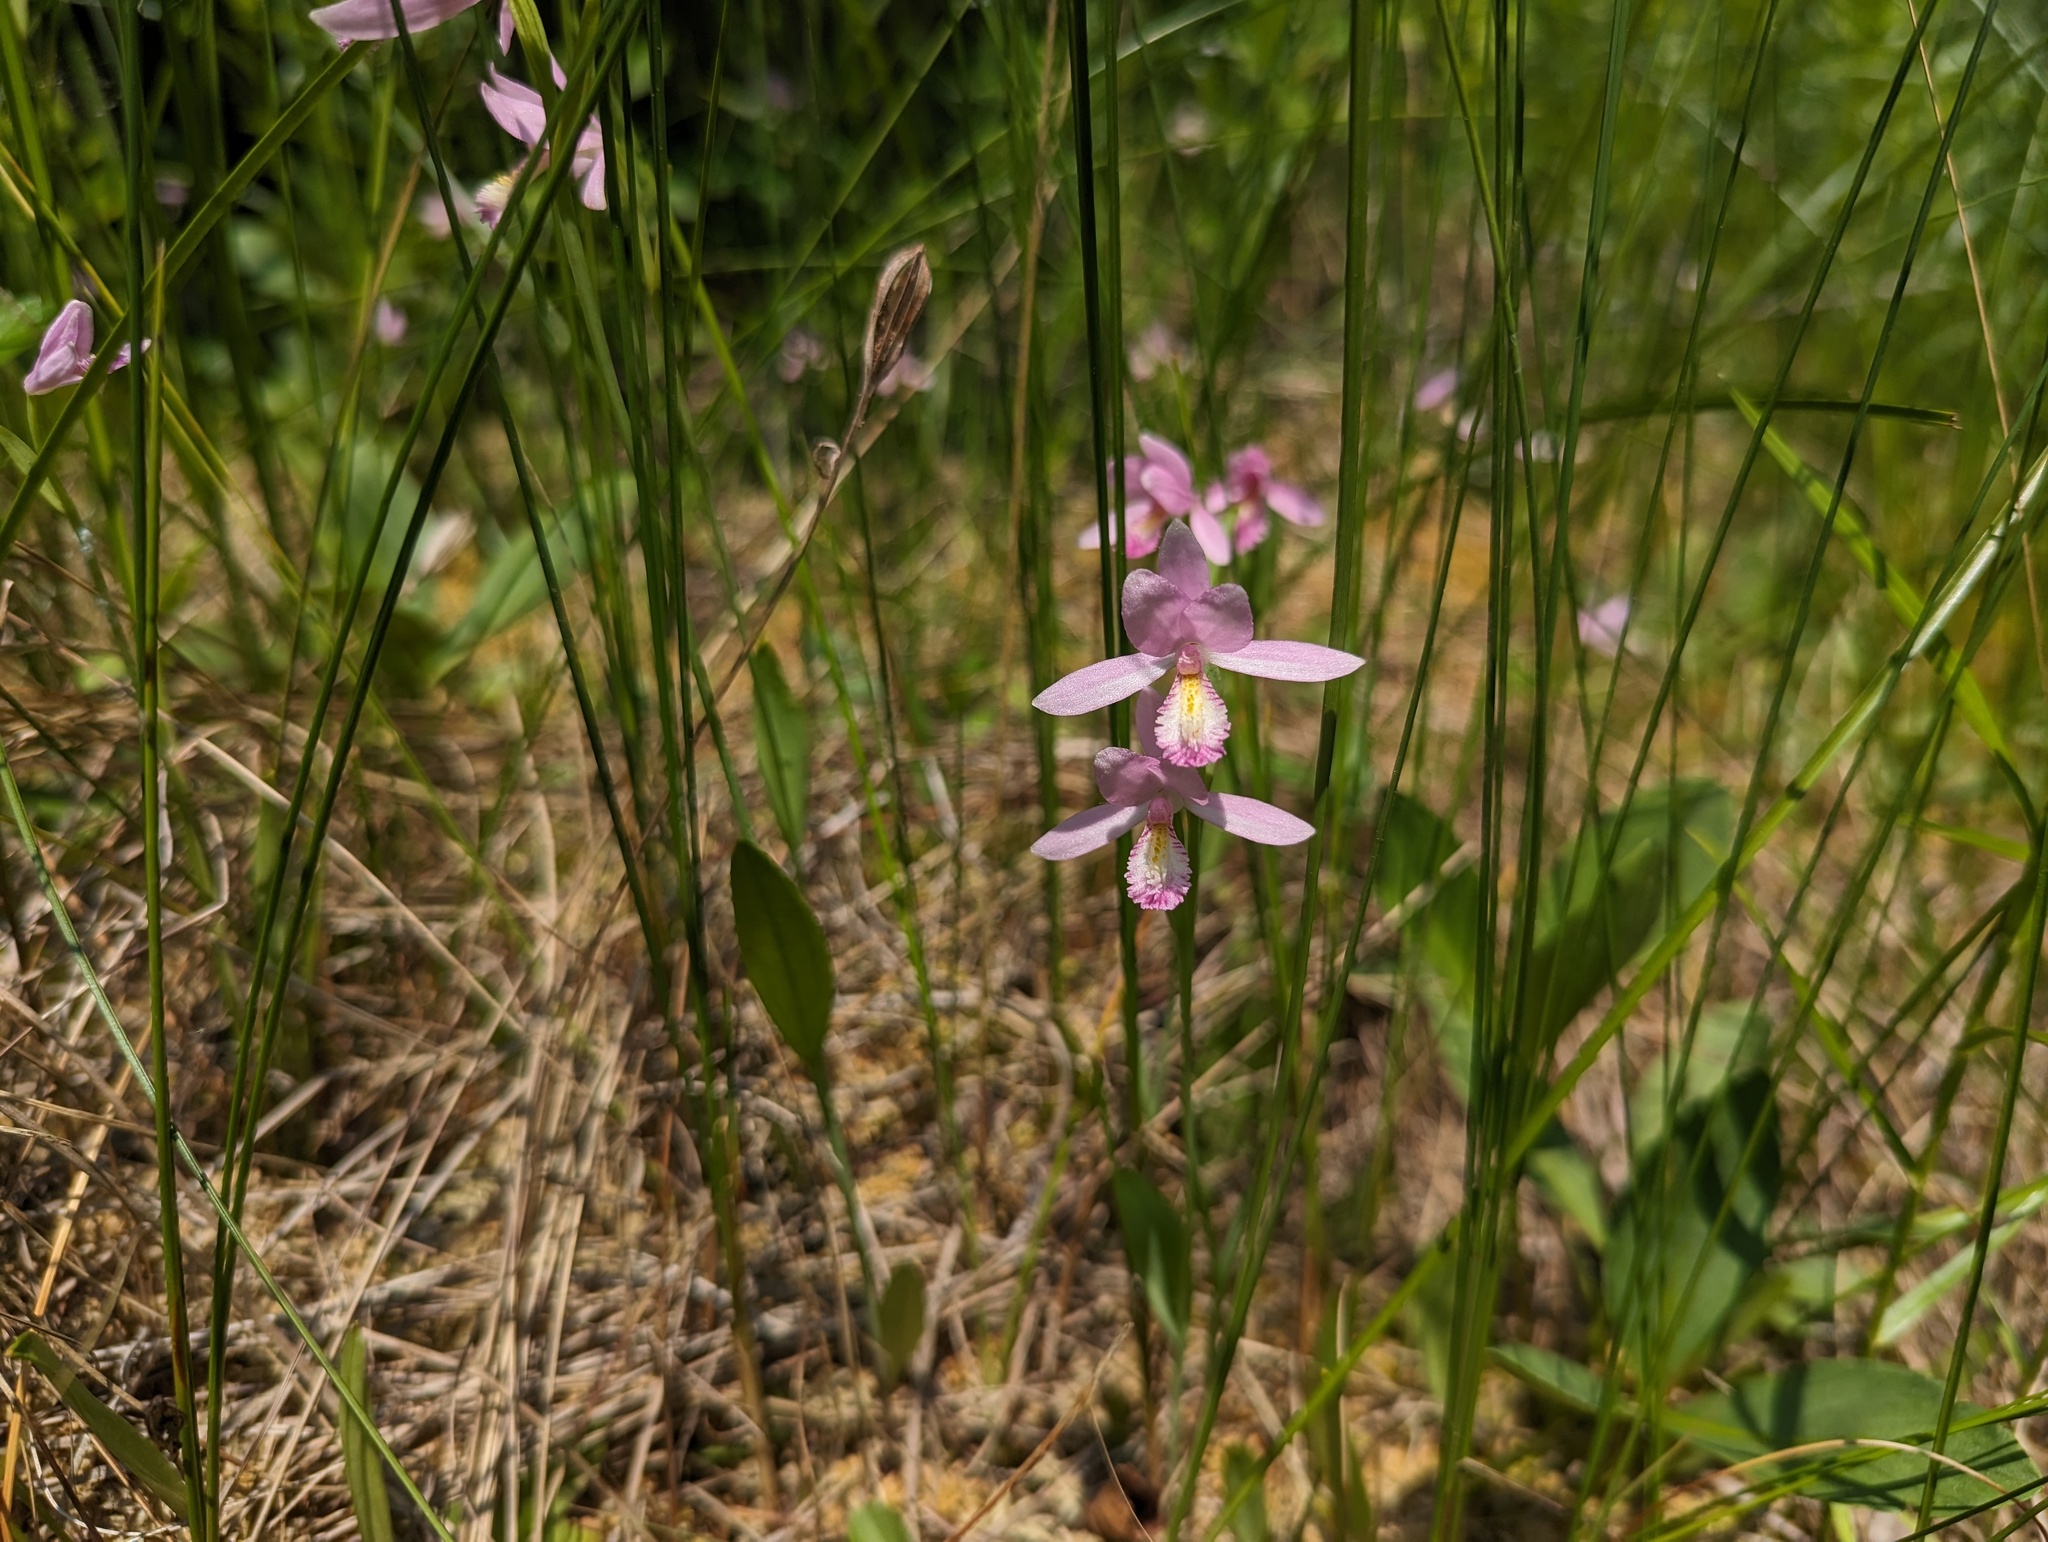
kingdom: Plantae
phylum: Tracheophyta
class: Liliopsida
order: Asparagales
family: Orchidaceae
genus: Pogonia
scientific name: Pogonia ophioglossoides
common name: Rose pogonia
